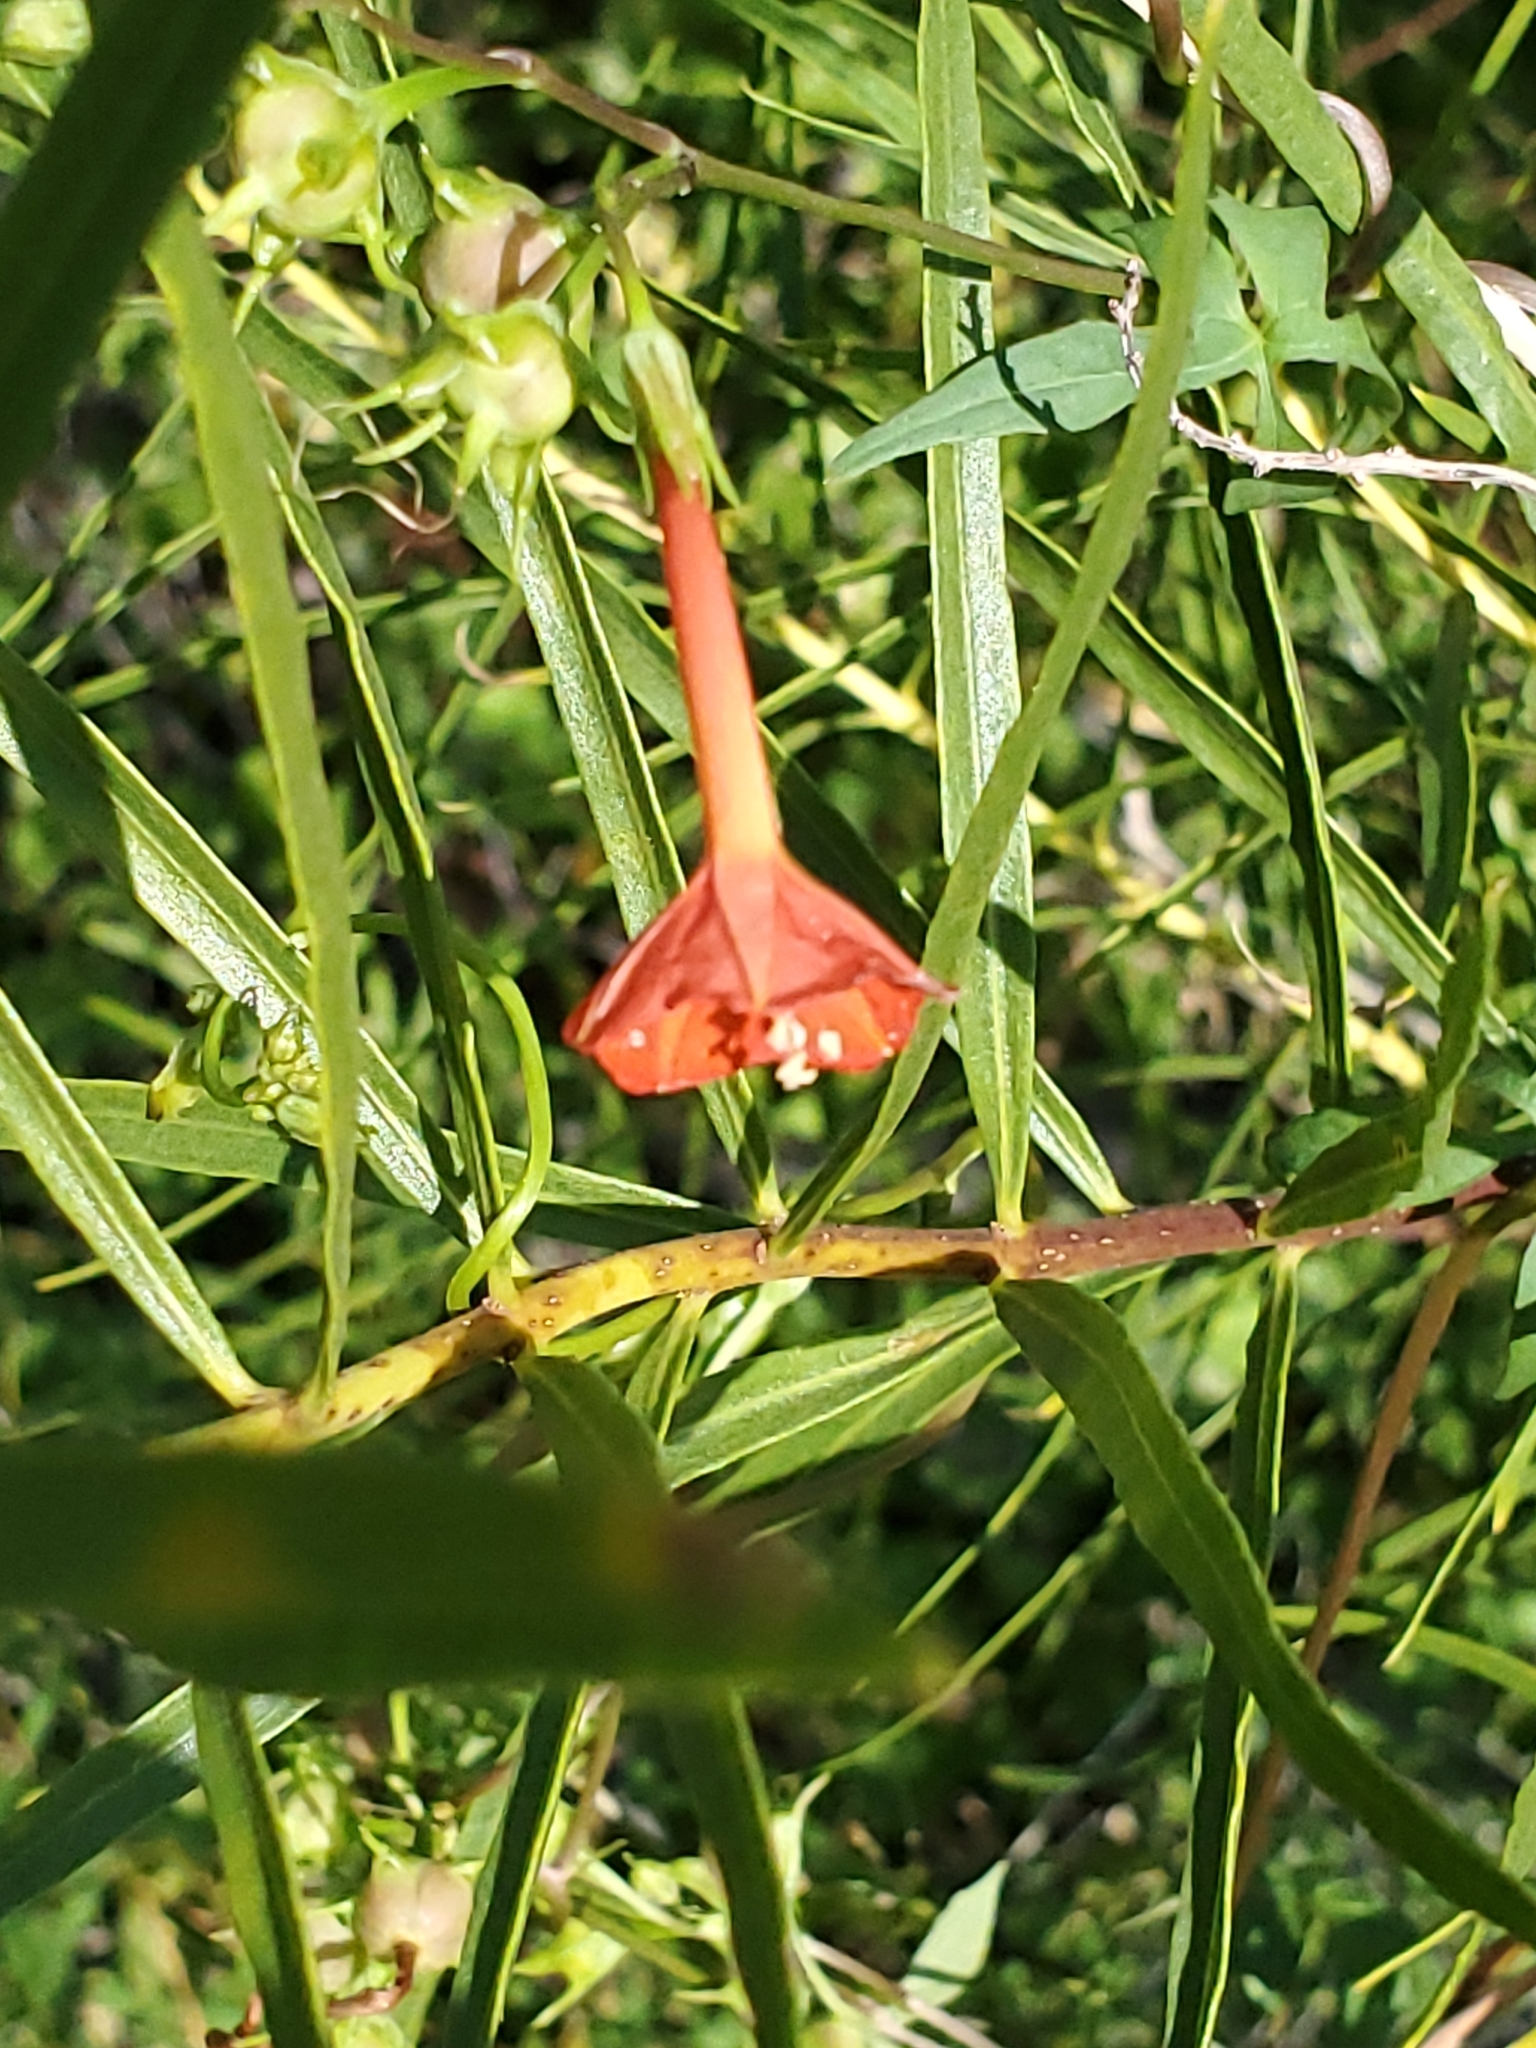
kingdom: Plantae
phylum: Tracheophyta
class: Magnoliopsida
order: Solanales
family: Convolvulaceae
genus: Ipomoea
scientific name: Ipomoea cristulata
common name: Trans-pecos morning-glory
